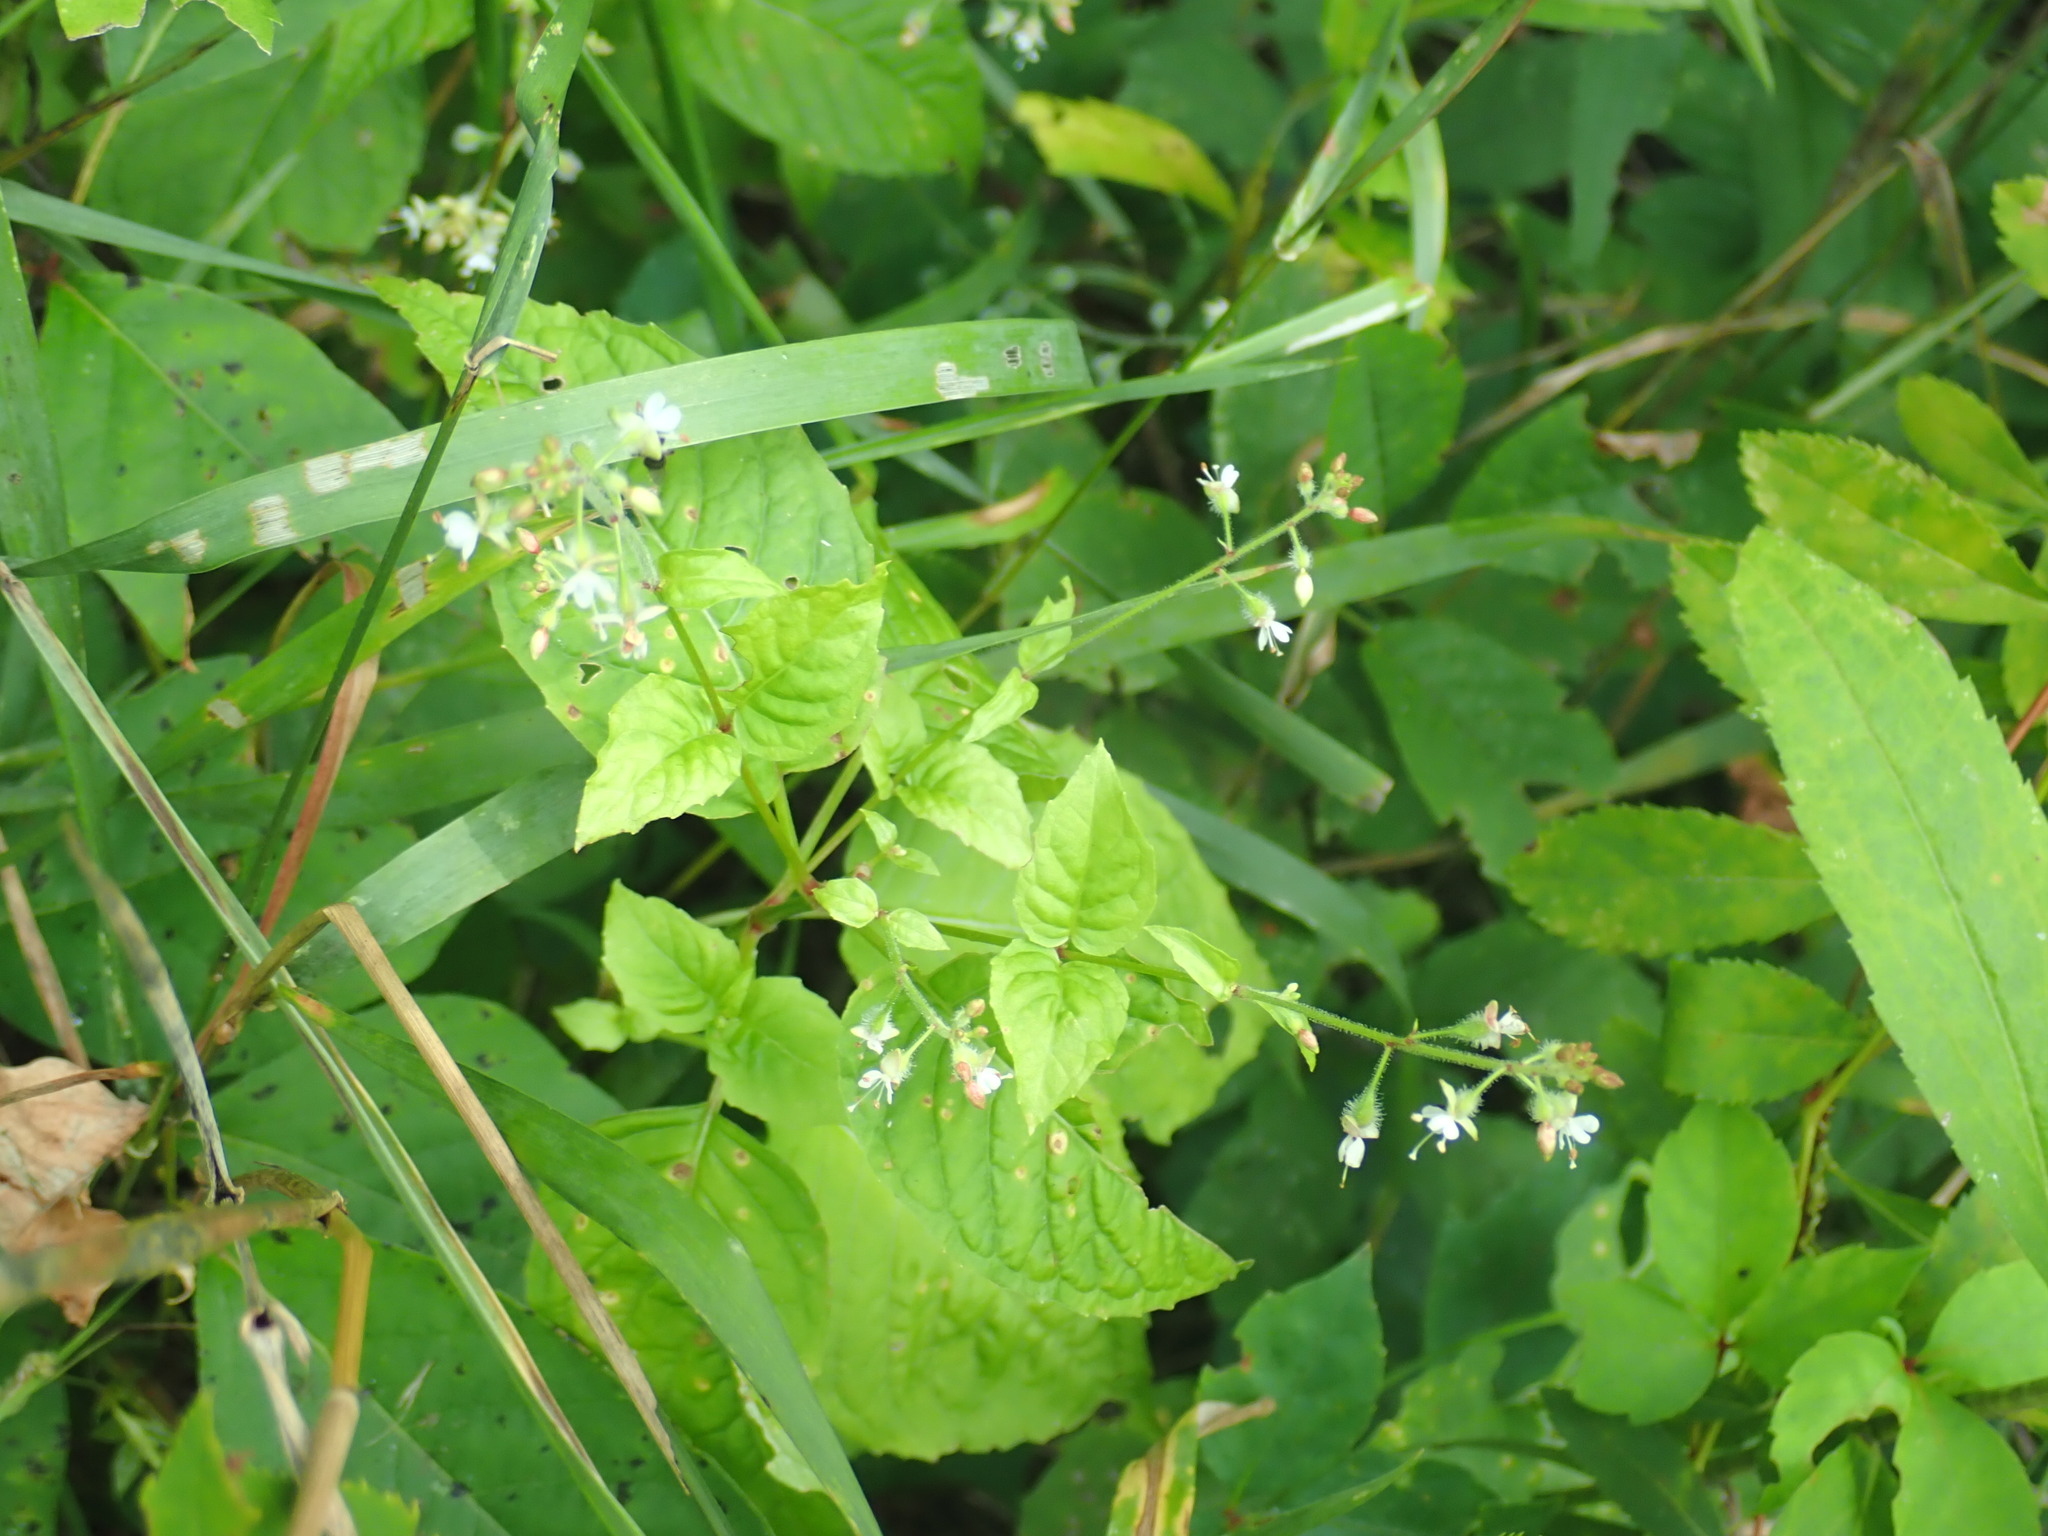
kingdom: Plantae
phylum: Tracheophyta
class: Magnoliopsida
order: Myrtales
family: Onagraceae
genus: Circaea
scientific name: Circaea canadensis
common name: Broad-leaved enchanter's nightshade
